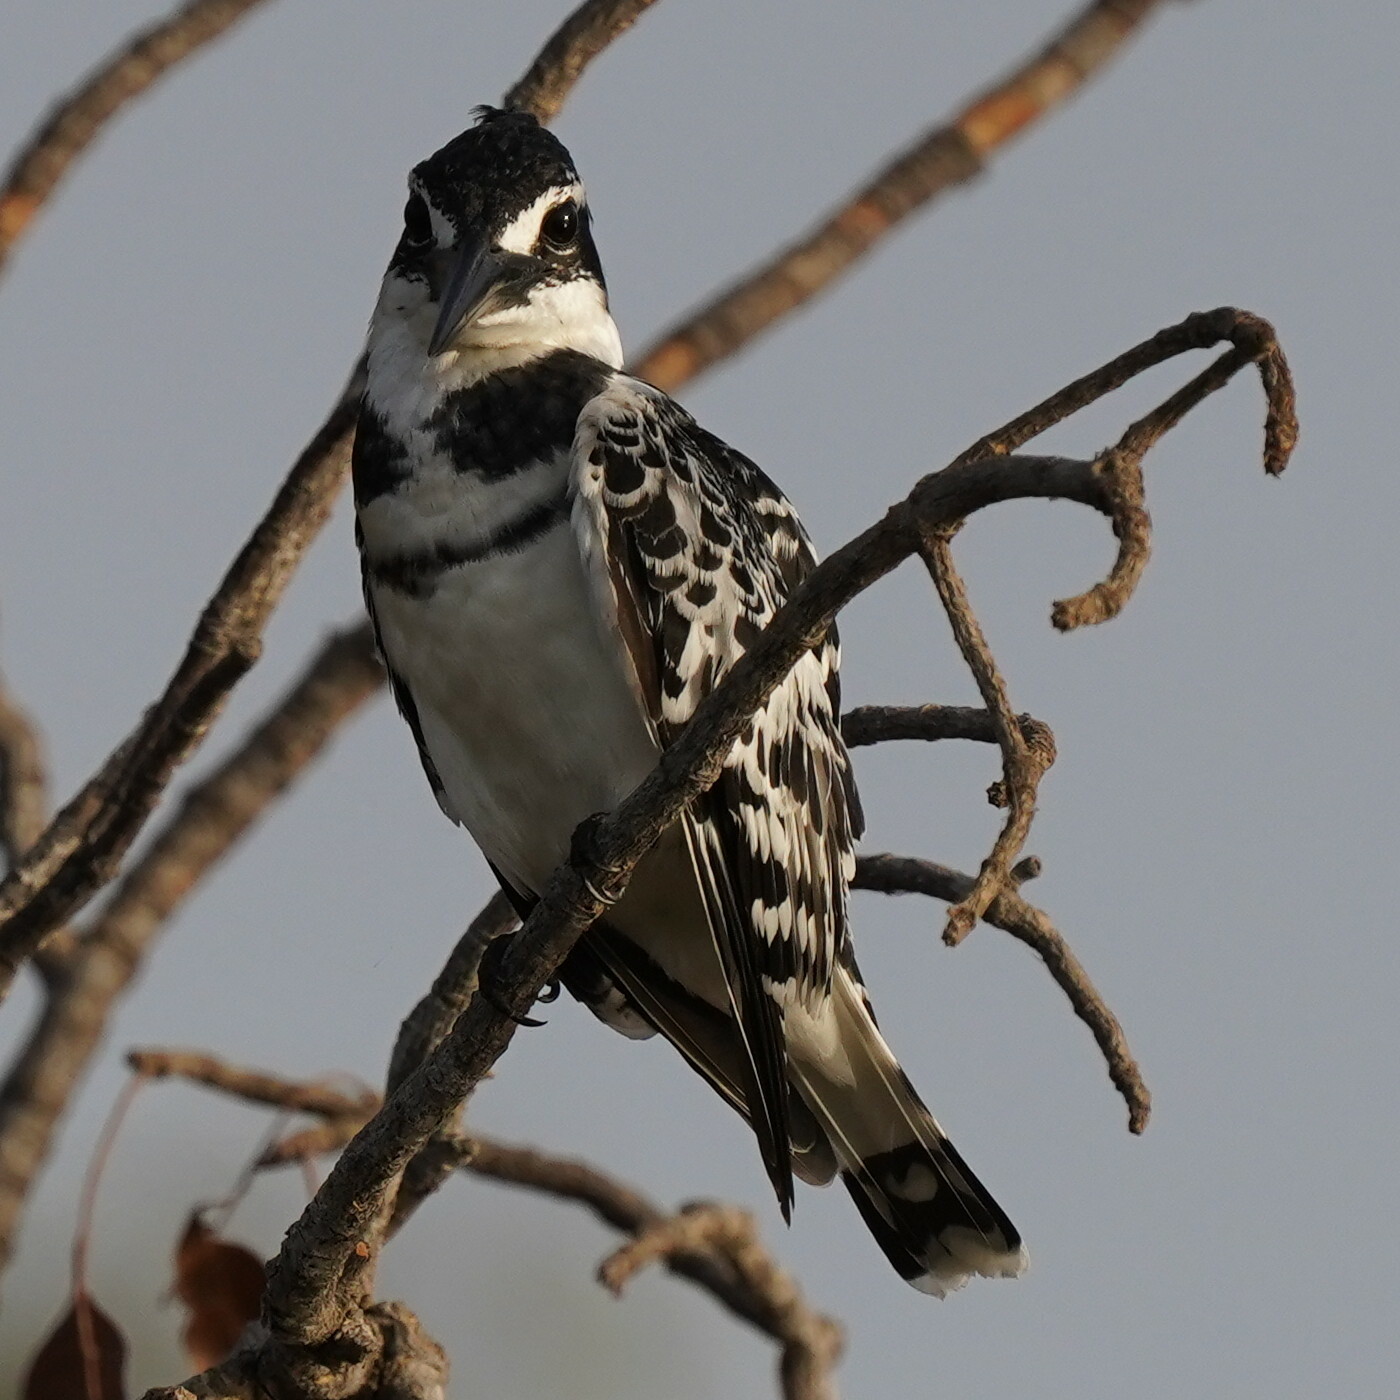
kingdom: Animalia
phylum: Chordata
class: Aves
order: Coraciiformes
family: Alcedinidae
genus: Ceryle
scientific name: Ceryle rudis
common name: Pied kingfisher
